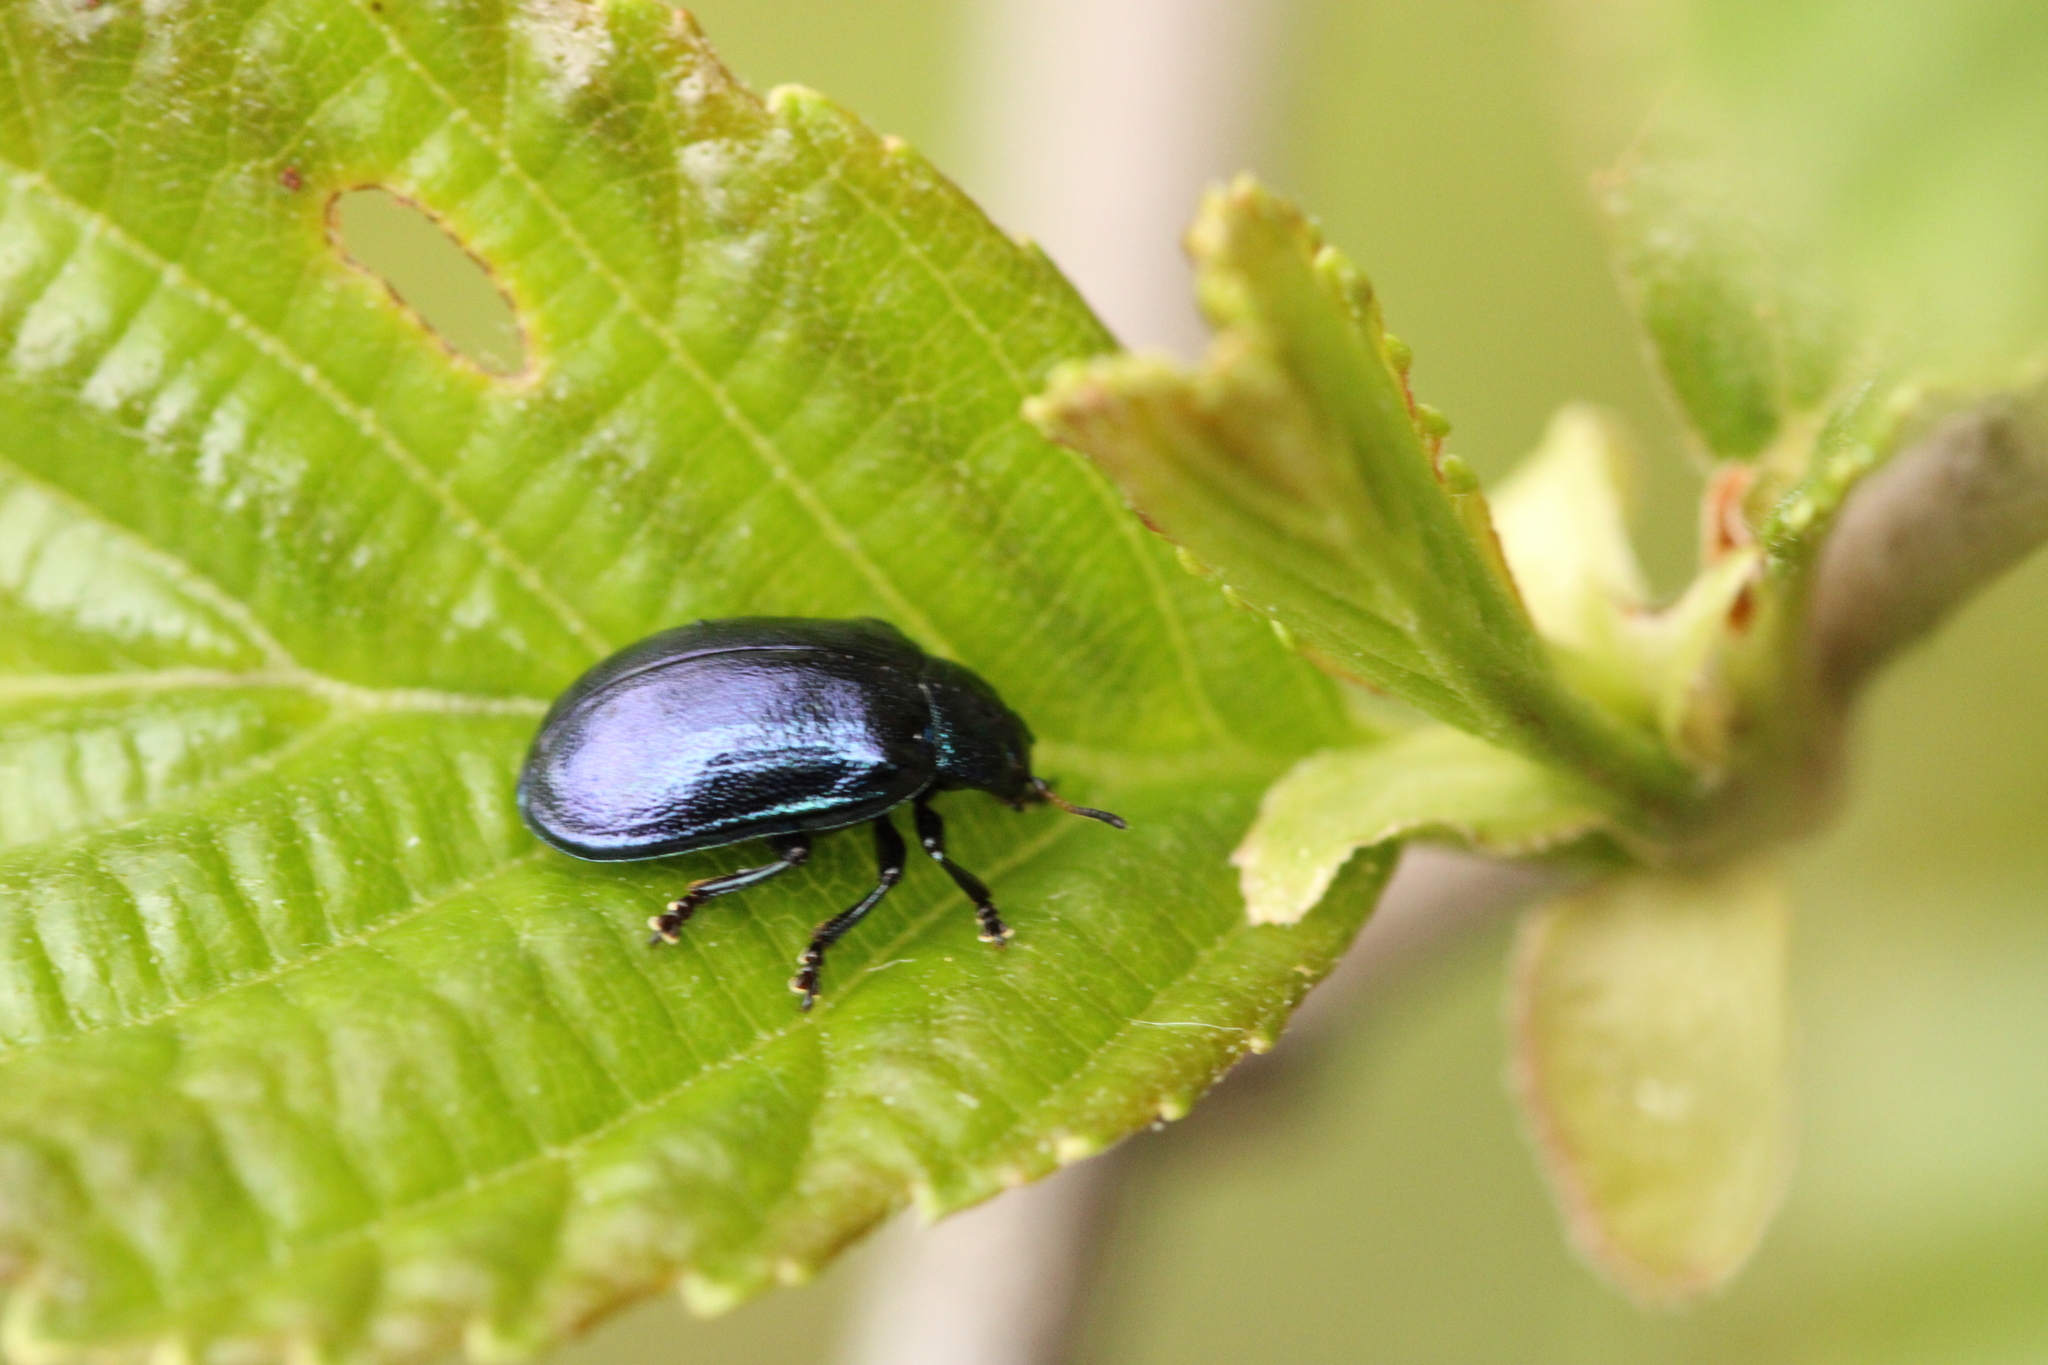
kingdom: Animalia
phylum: Arthropoda
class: Insecta
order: Coleoptera
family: Chrysomelidae
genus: Plagiosterna
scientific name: Plagiosterna aenea
